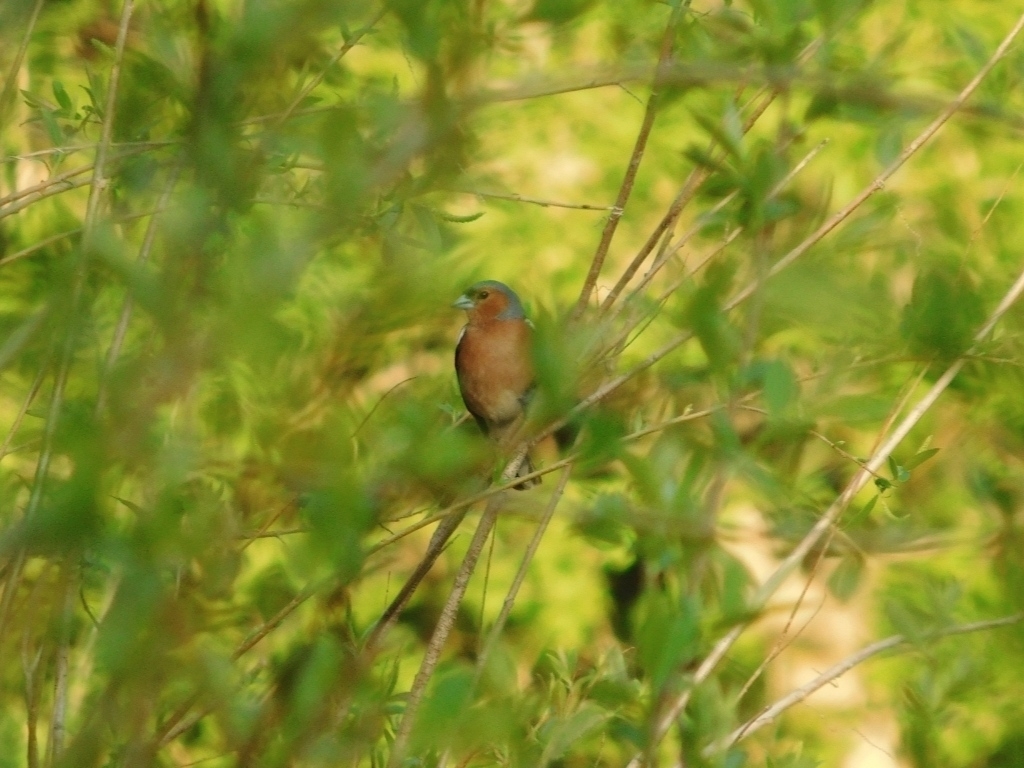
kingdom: Animalia
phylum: Chordata
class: Aves
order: Passeriformes
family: Fringillidae
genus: Fringilla
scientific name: Fringilla coelebs
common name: Common chaffinch
